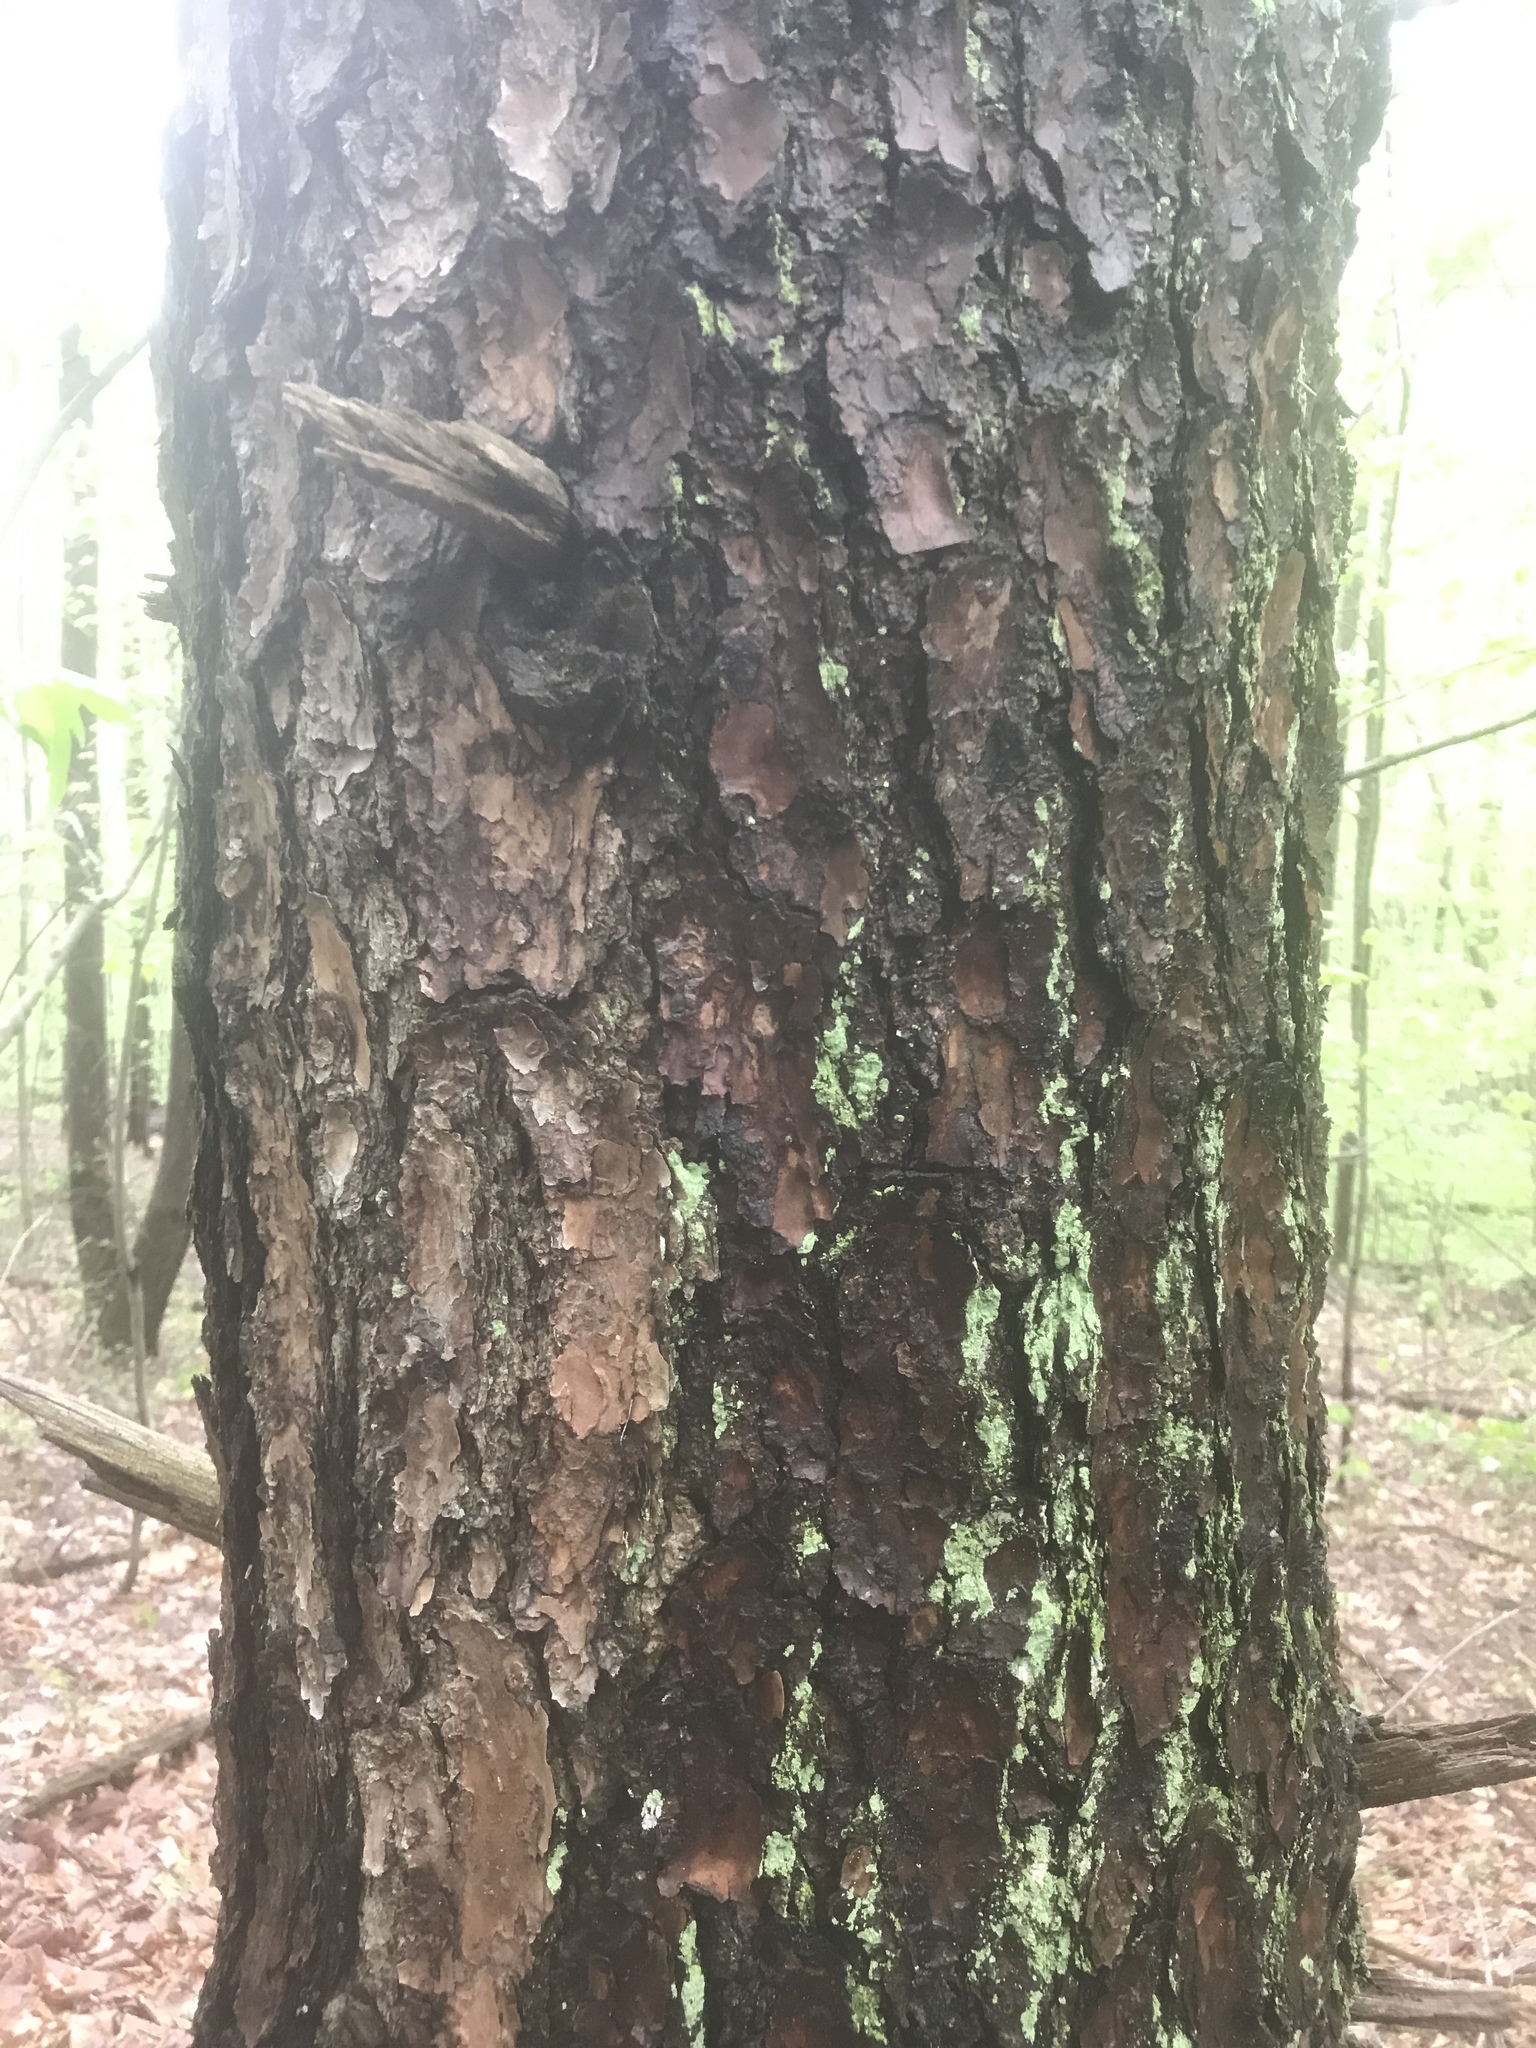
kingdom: Plantae
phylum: Tracheophyta
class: Pinopsida
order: Pinales
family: Pinaceae
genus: Pinus
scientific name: Pinus virginiana
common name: Scrub pine
